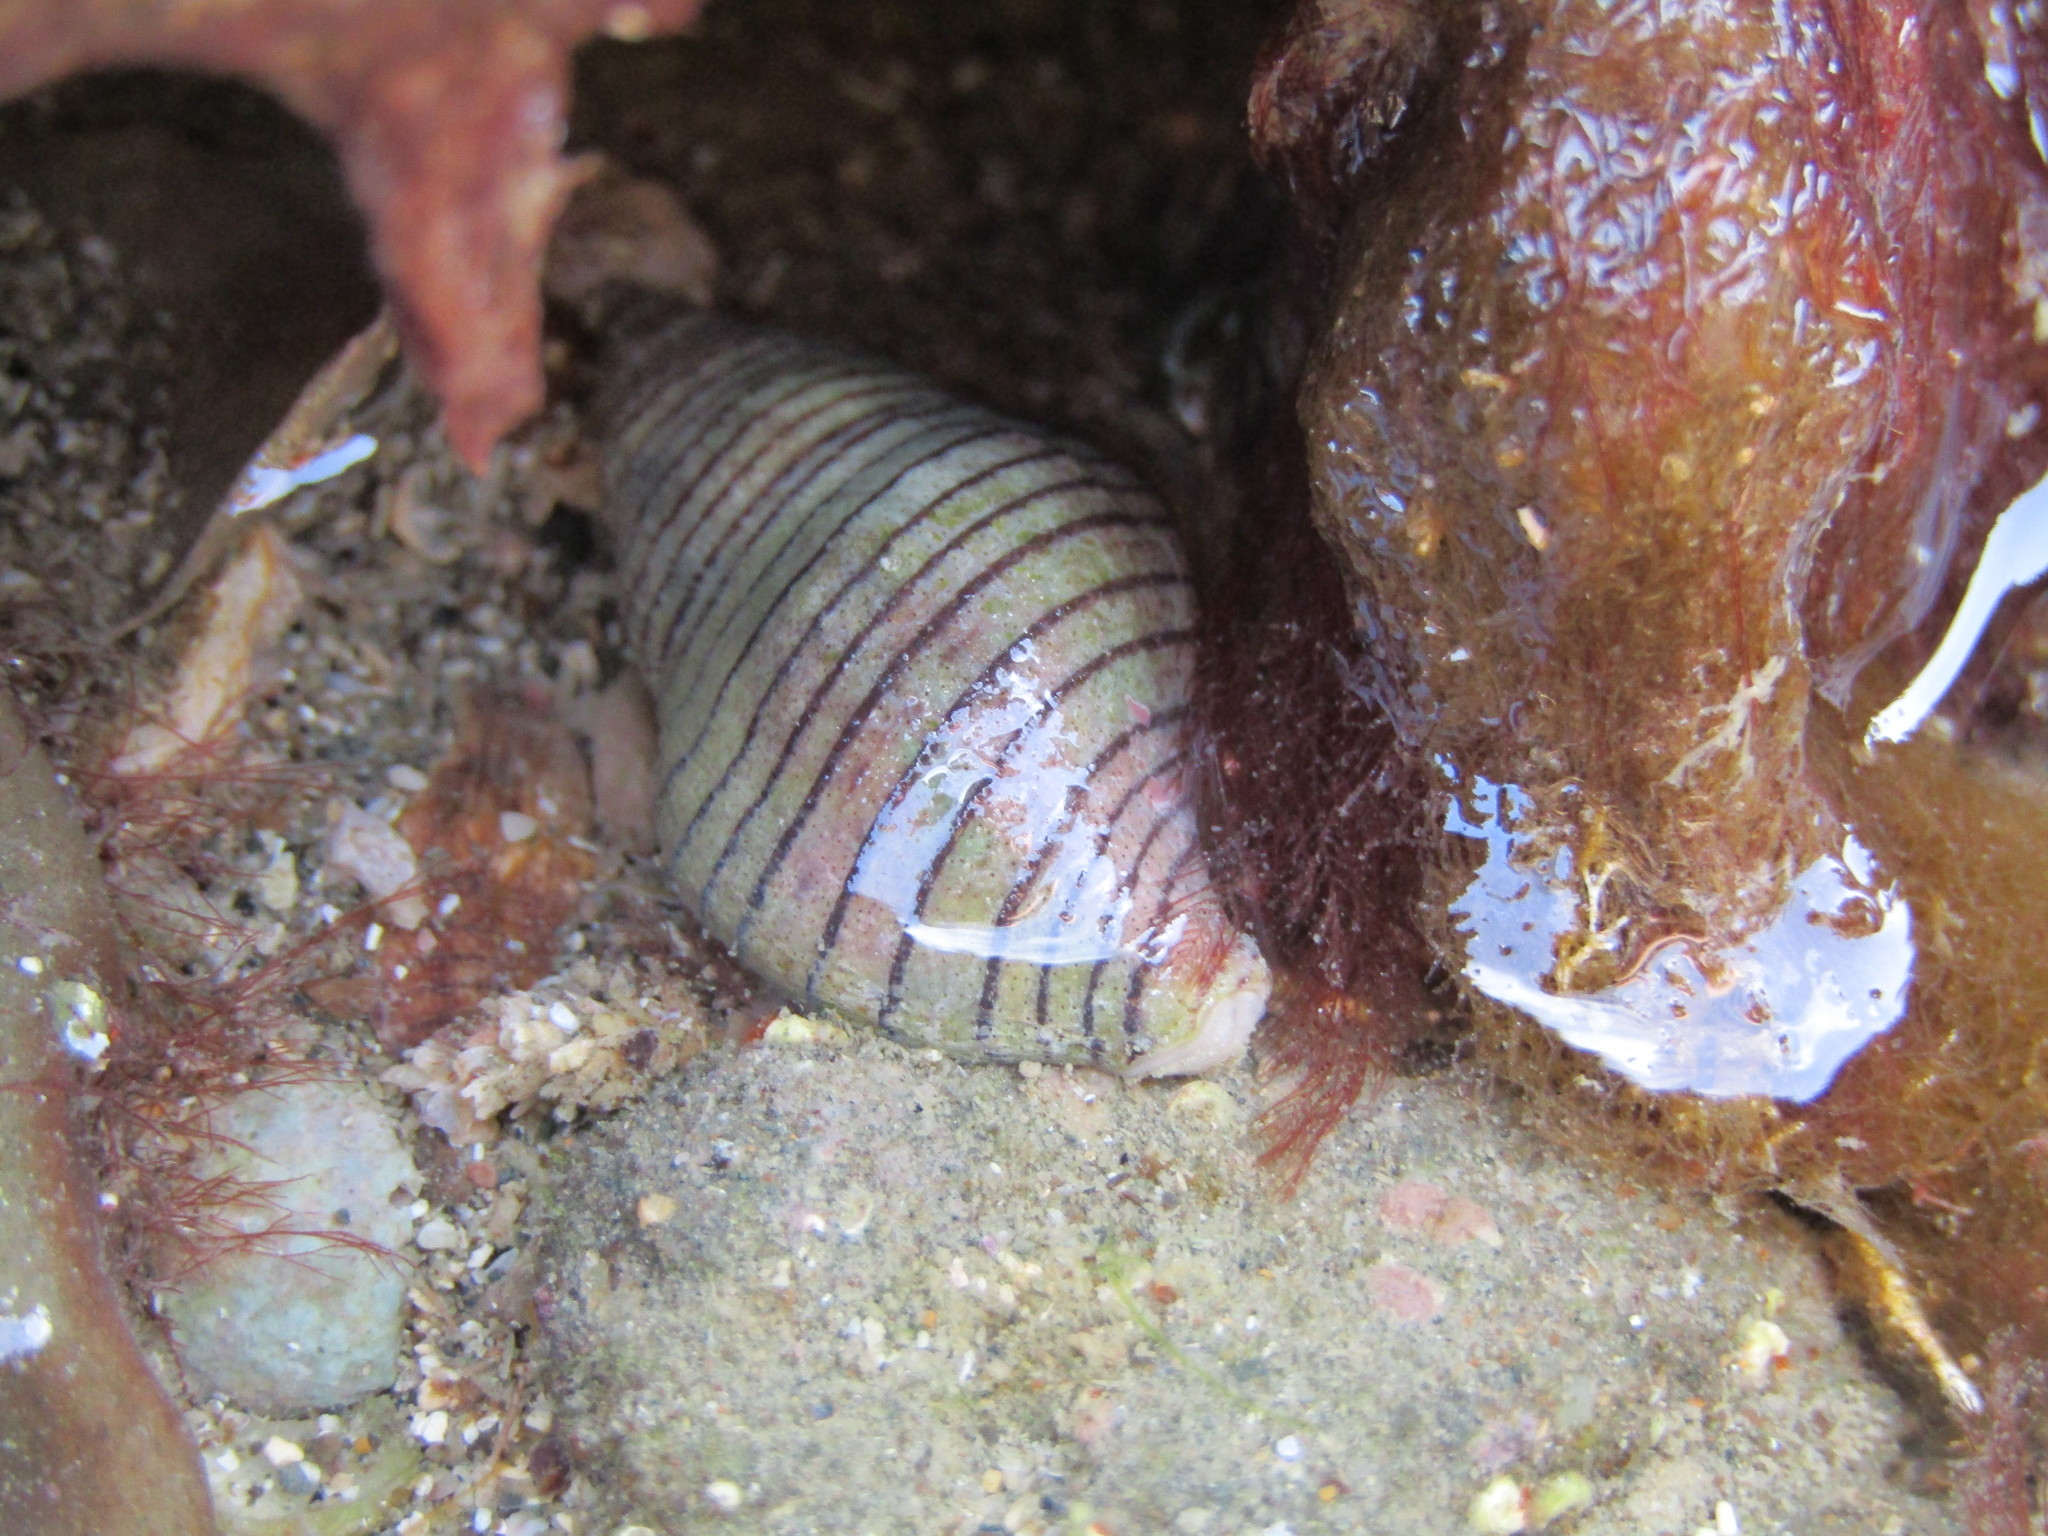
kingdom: Animalia
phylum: Mollusca
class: Gastropoda
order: Neogastropoda
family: Tudiclidae
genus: Buccinulum
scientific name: Buccinulum linea
